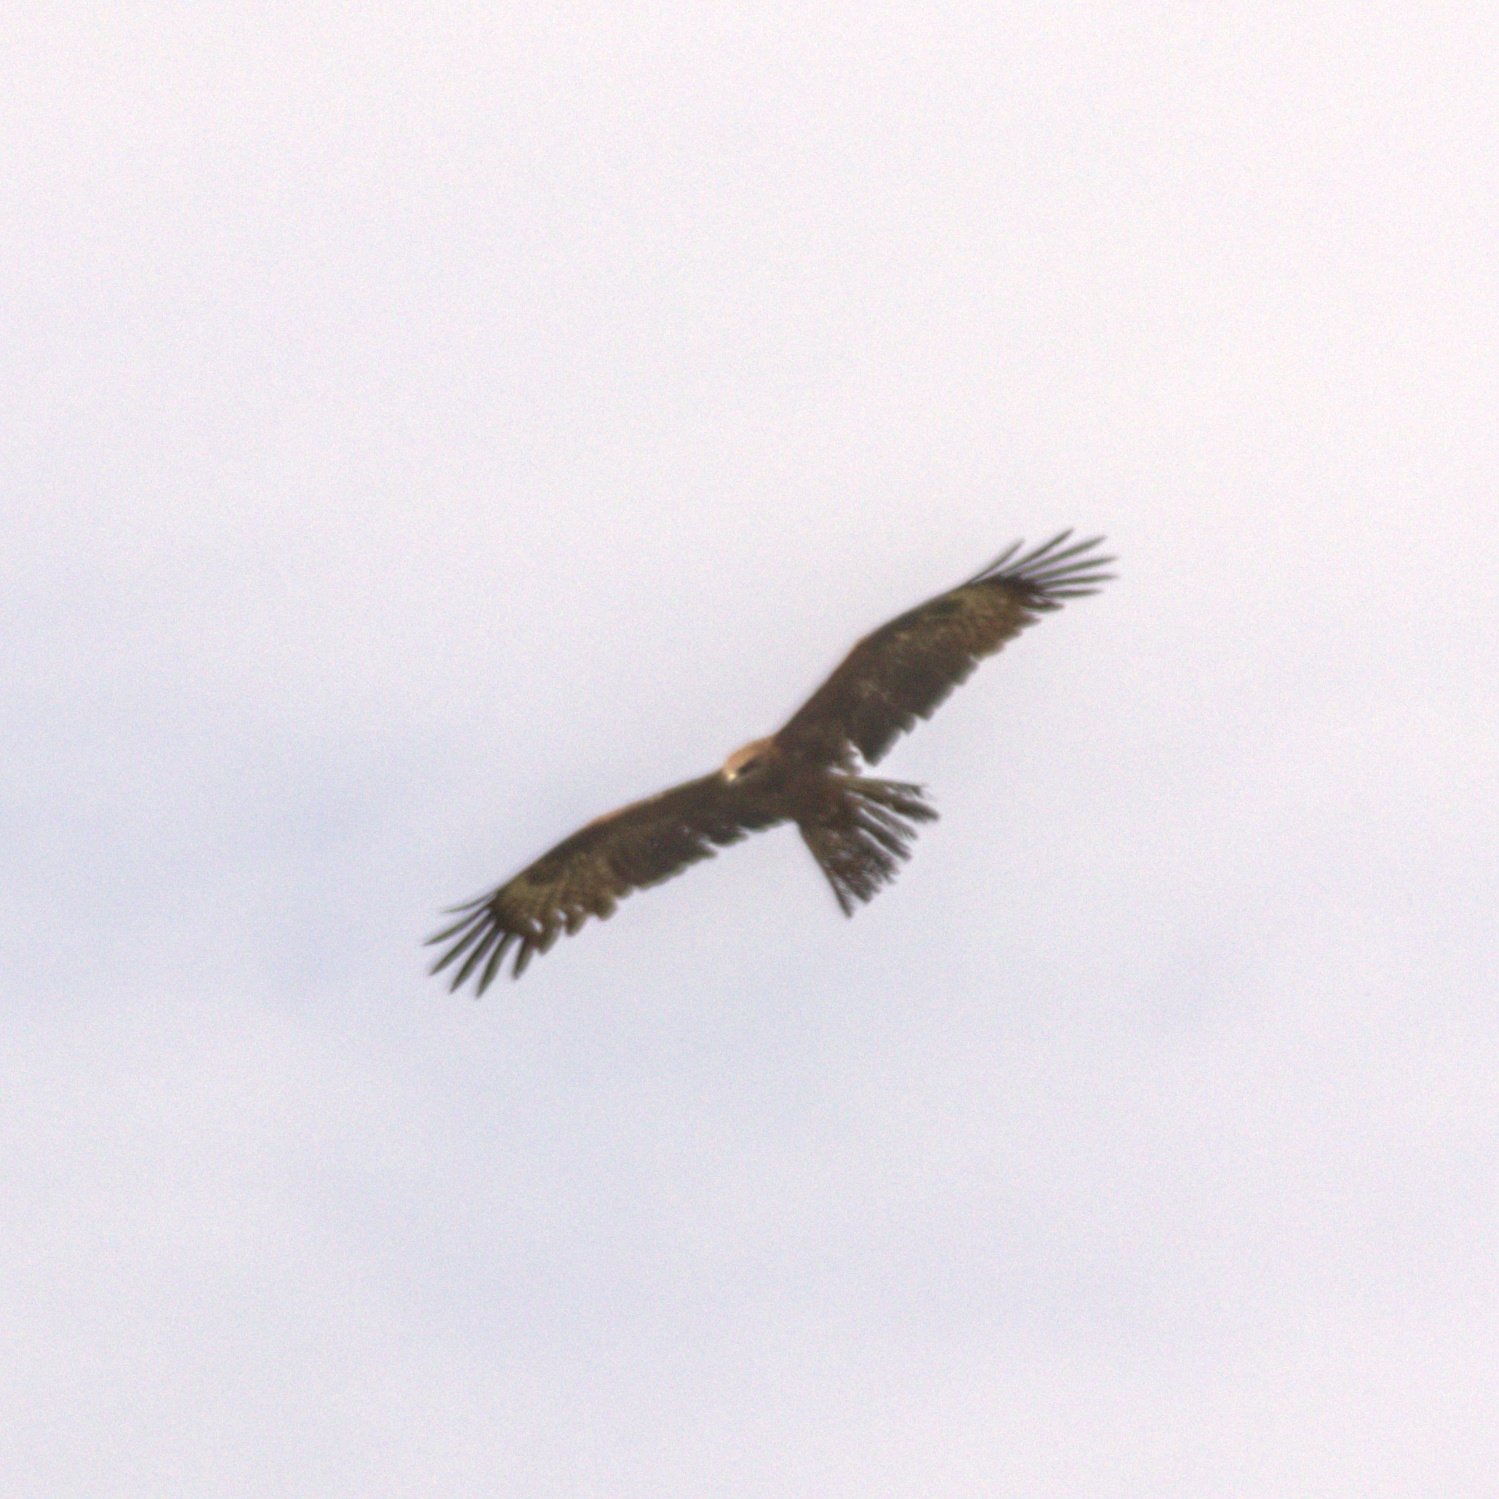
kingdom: Animalia
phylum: Chordata
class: Aves
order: Accipitriformes
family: Accipitridae
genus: Milvus
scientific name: Milvus migrans
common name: Black kite
